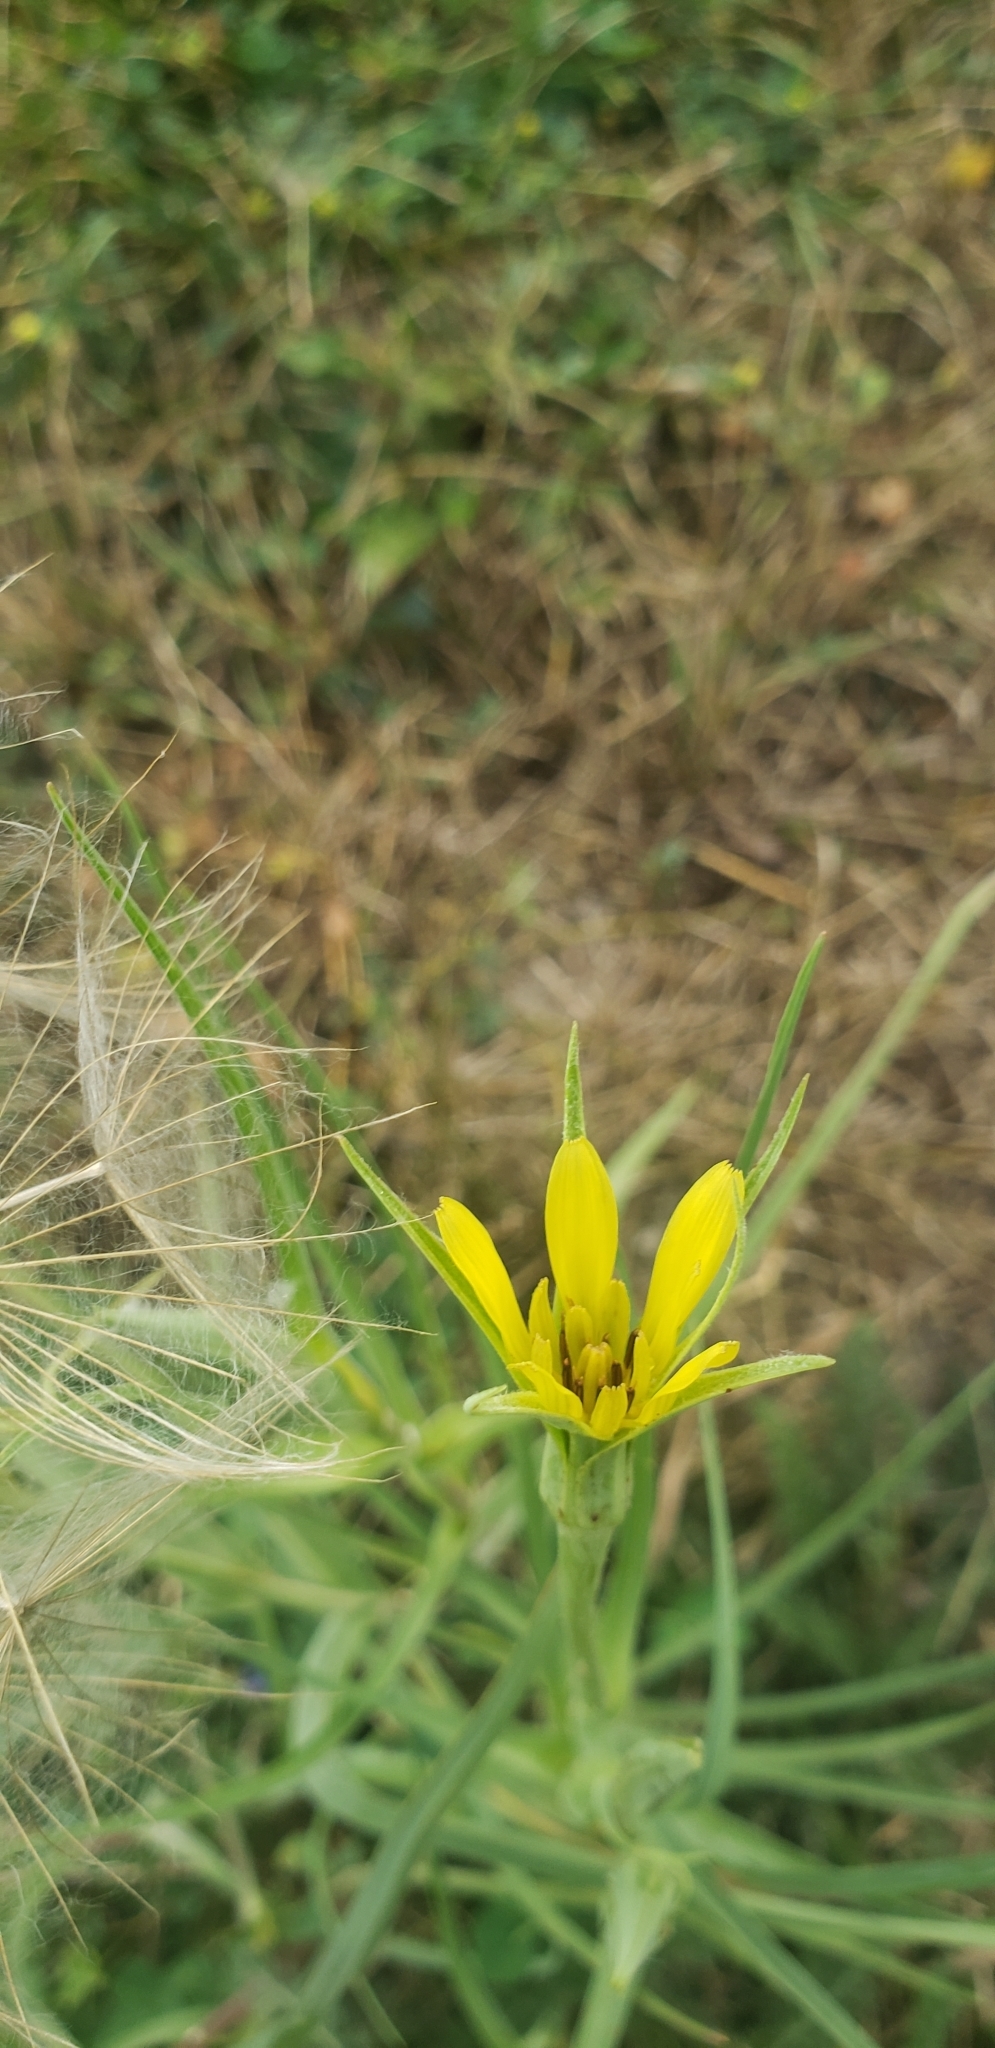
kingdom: Plantae
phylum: Tracheophyta
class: Magnoliopsida
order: Asterales
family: Asteraceae
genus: Tragopogon
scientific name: Tragopogon dubius
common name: Yellow salsify
